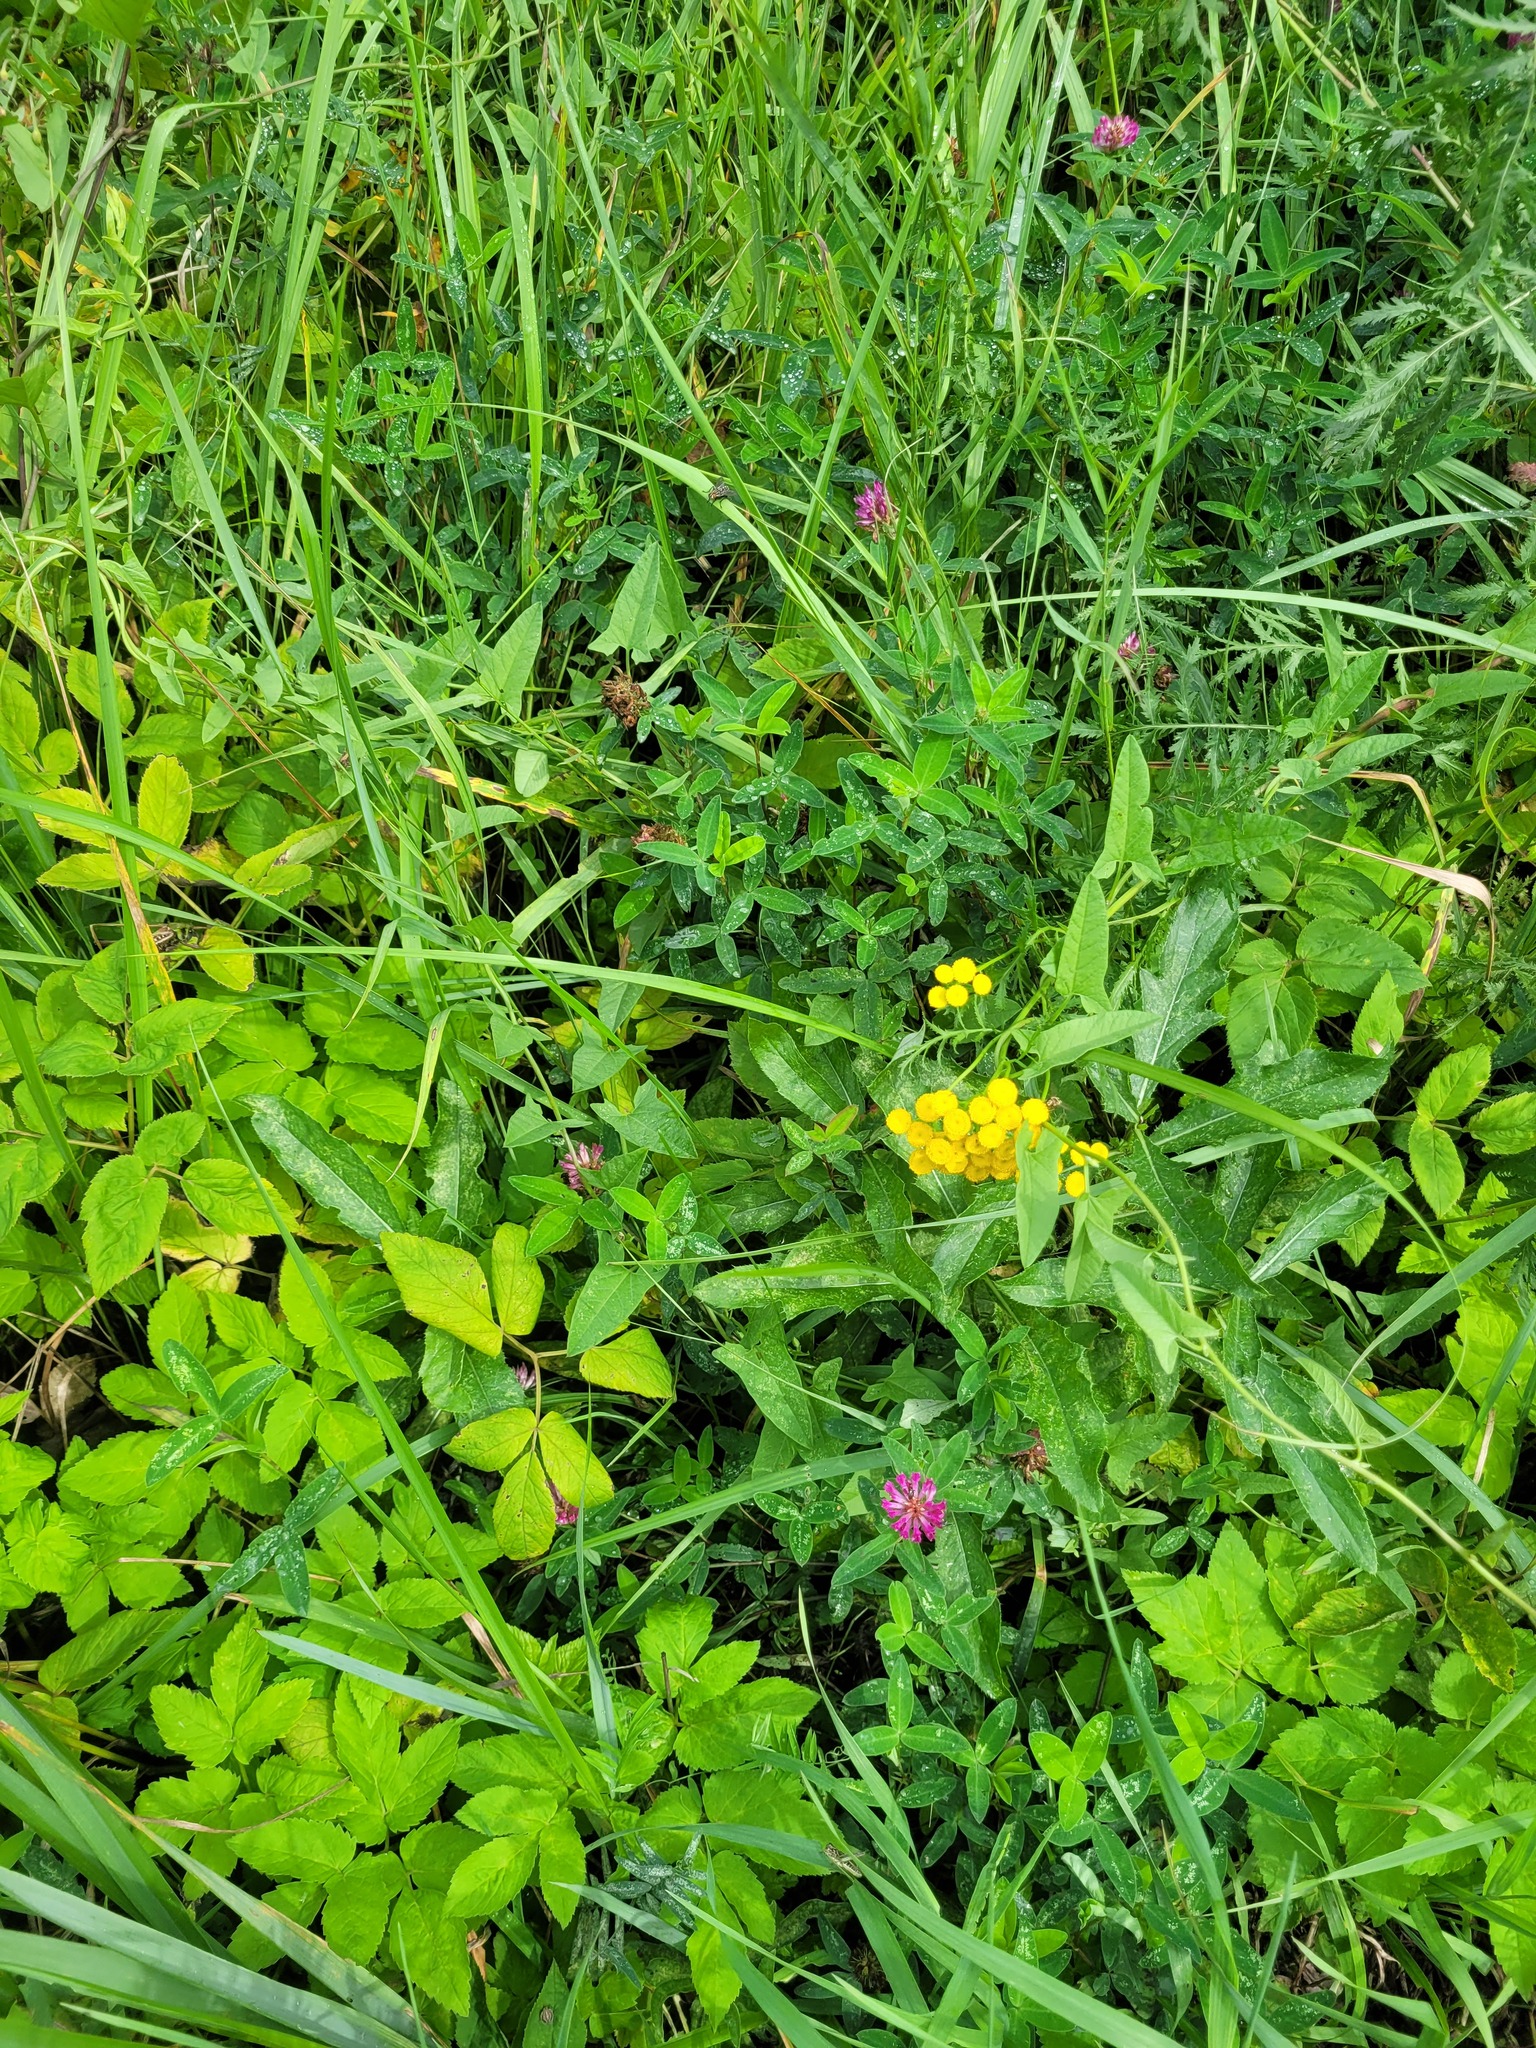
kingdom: Plantae
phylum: Tracheophyta
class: Magnoliopsida
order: Fabales
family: Fabaceae
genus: Trifolium
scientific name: Trifolium medium
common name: Zigzag clover
